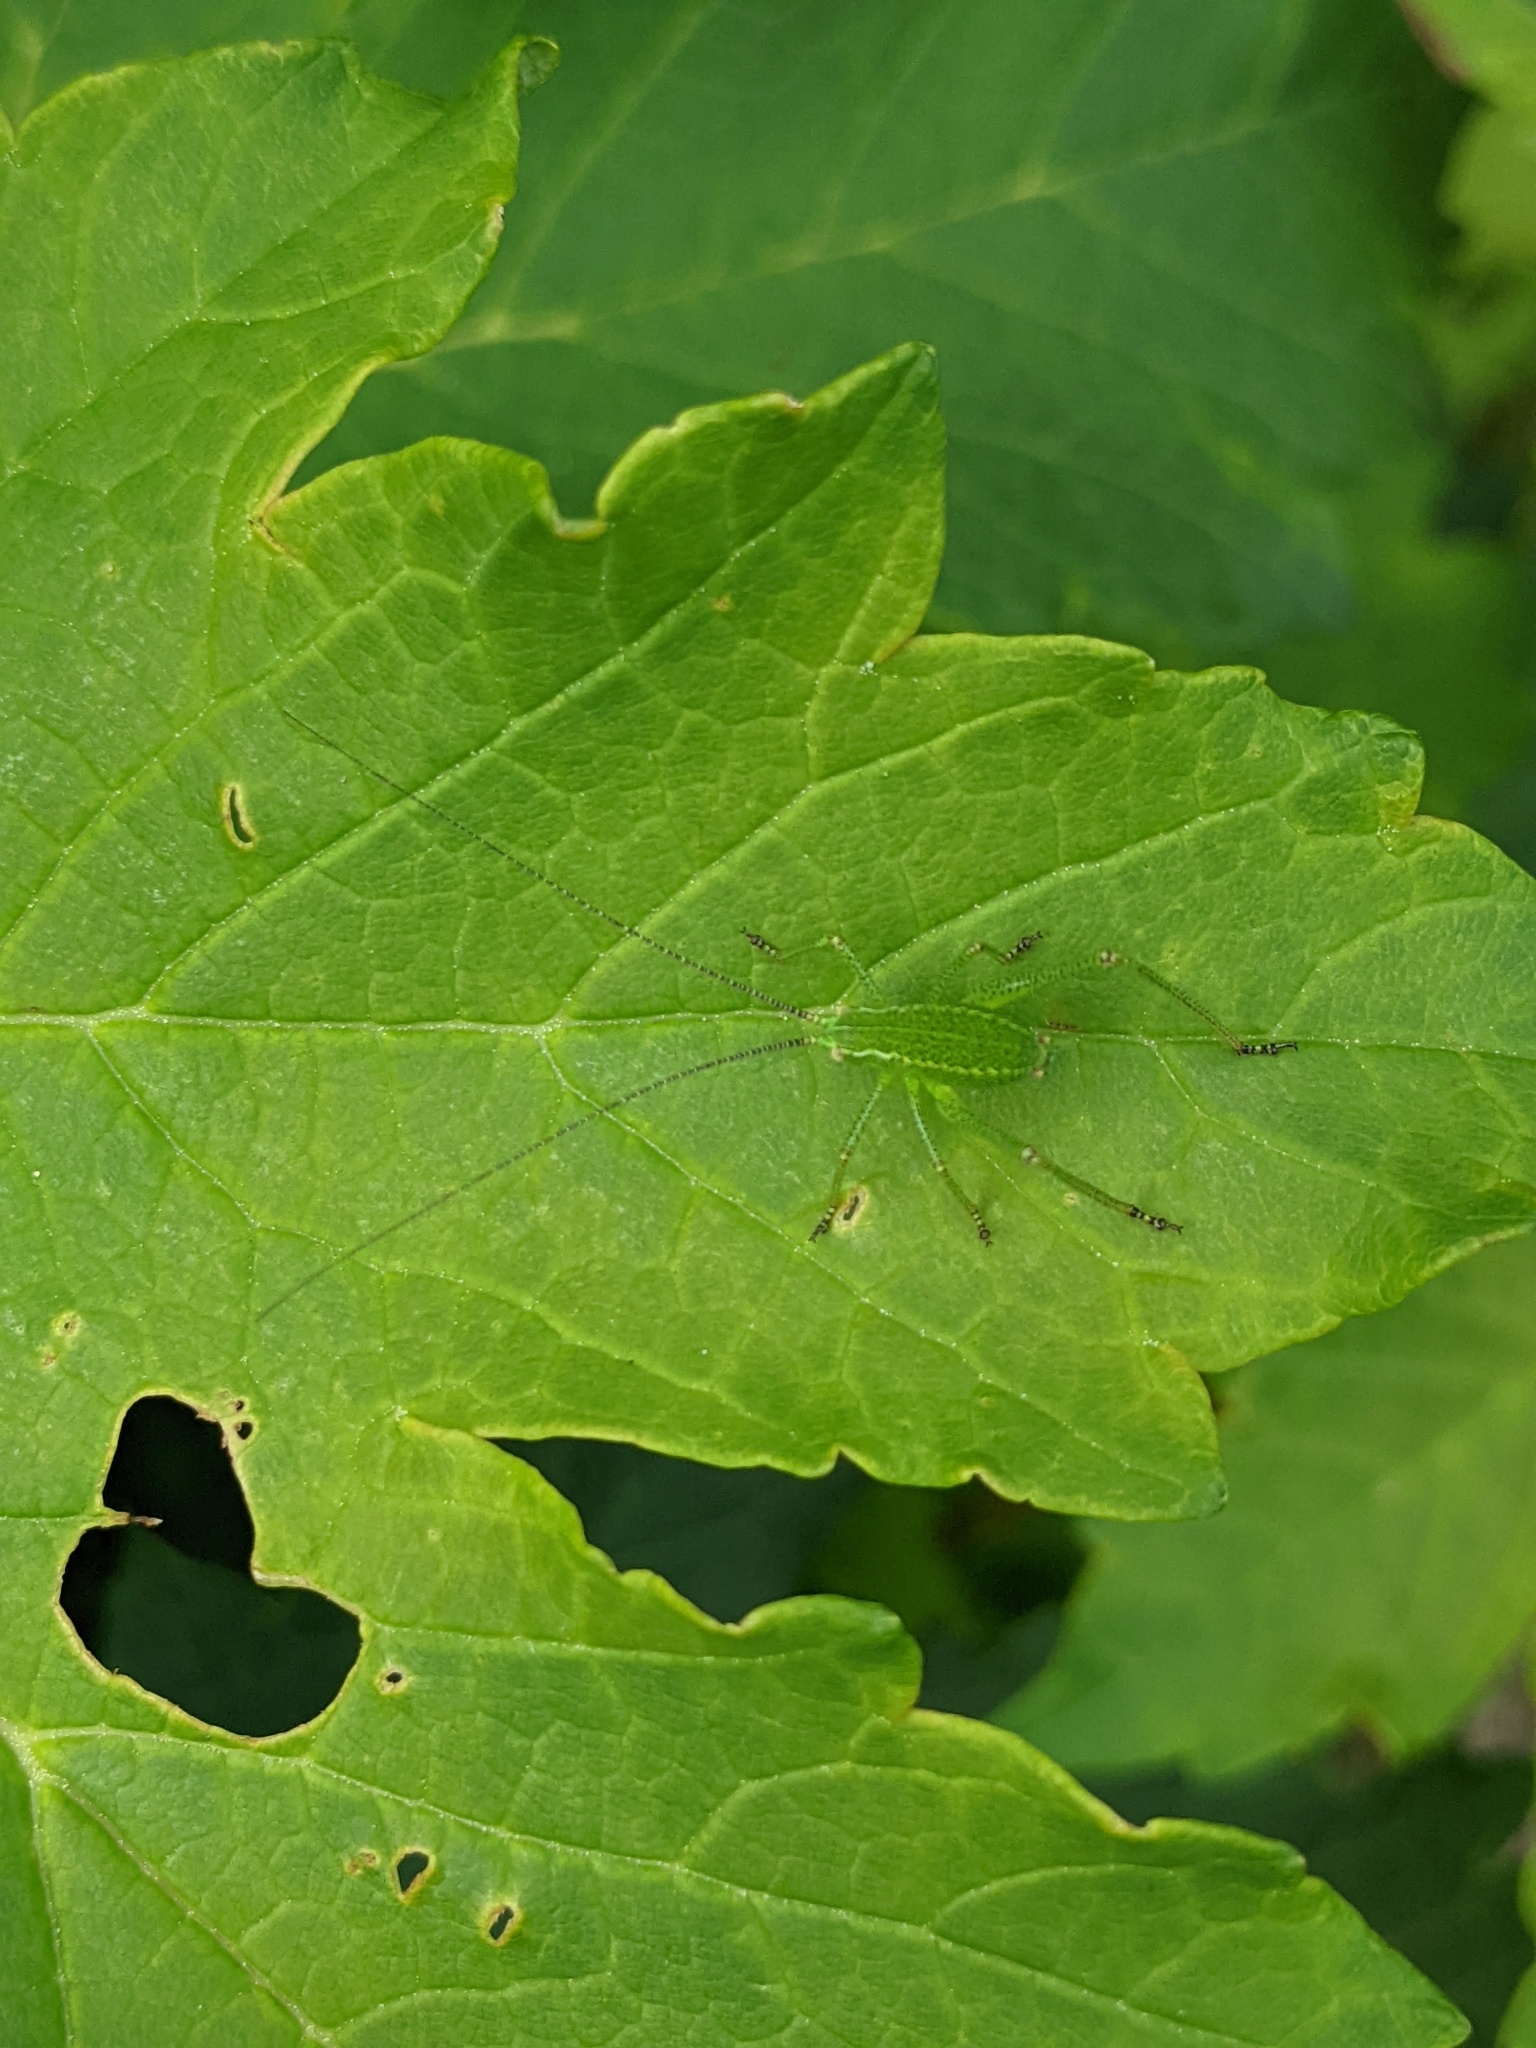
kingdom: Animalia
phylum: Arthropoda
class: Insecta
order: Orthoptera
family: Tettigoniidae
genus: Barbitistes
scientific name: Barbitistes serricauda
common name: Saw-tailed bush-cricket
